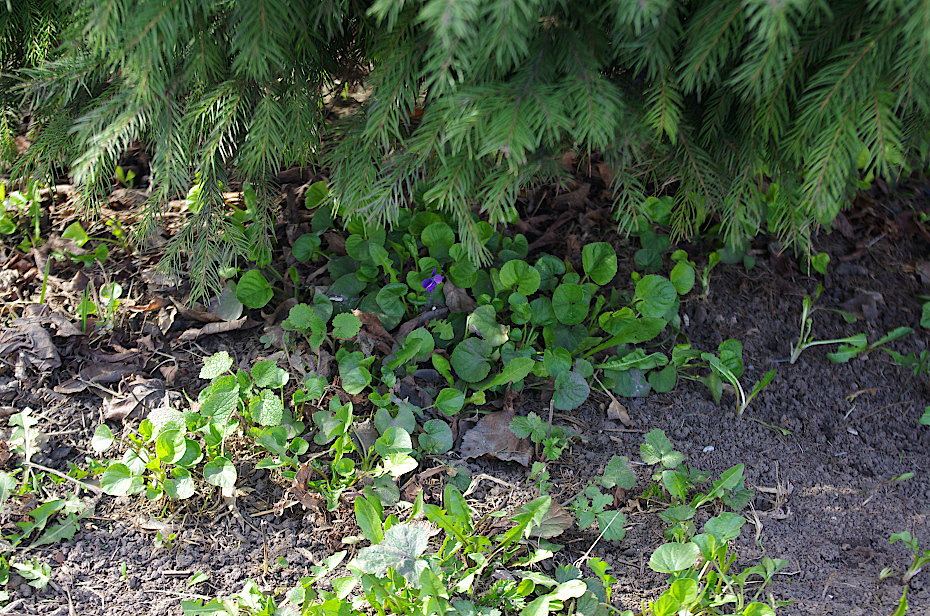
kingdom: Plantae
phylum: Tracheophyta
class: Magnoliopsida
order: Malpighiales
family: Violaceae
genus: Viola
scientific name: Viola odorata
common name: Sweet violet
